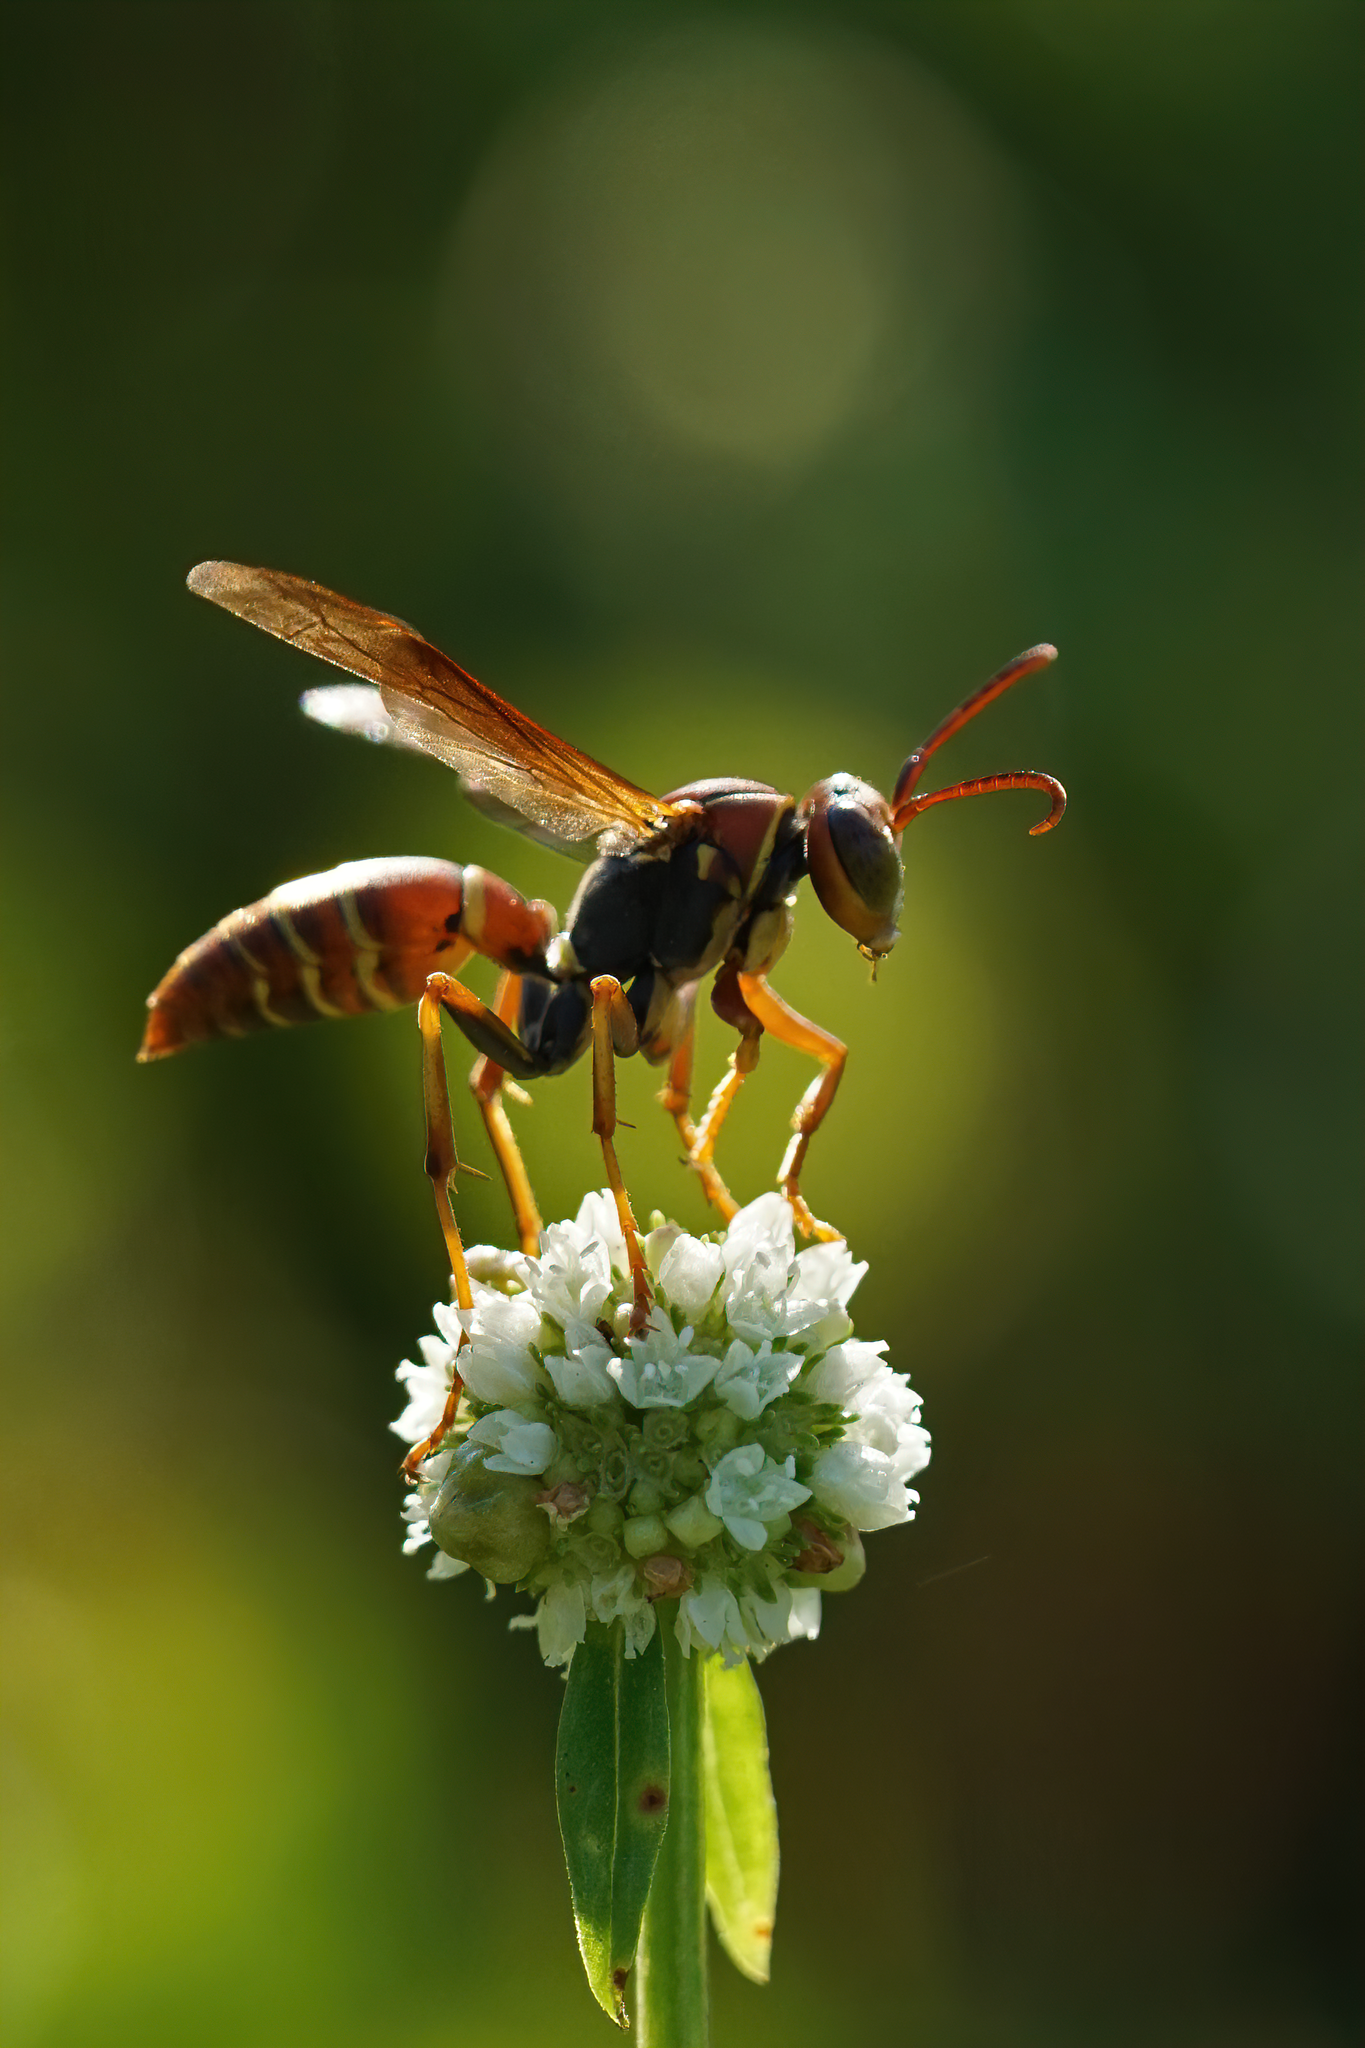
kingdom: Animalia
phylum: Arthropoda
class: Insecta
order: Hymenoptera
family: Eumenidae
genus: Polistes
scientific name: Polistes dorsalis
